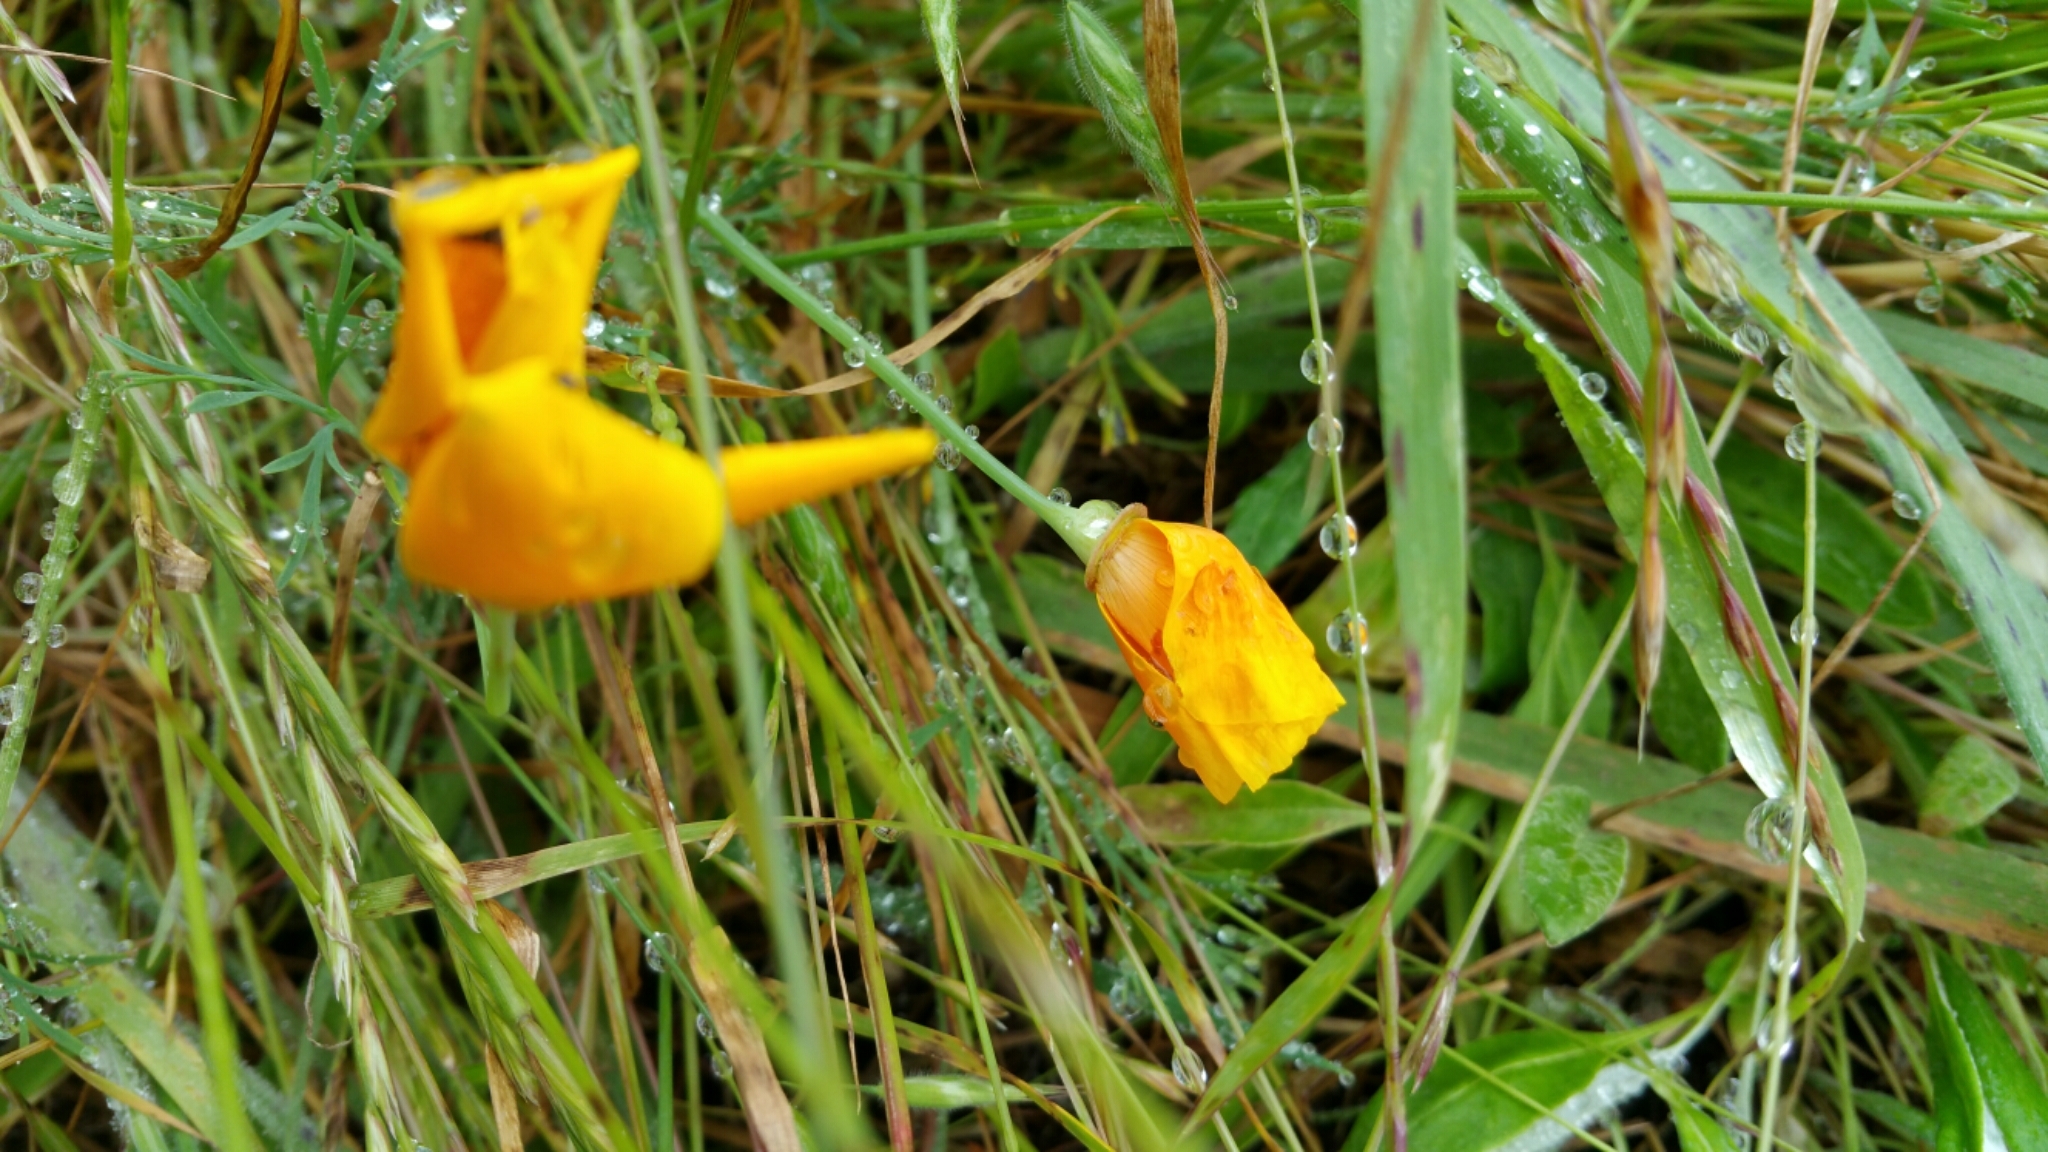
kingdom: Plantae
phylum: Tracheophyta
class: Magnoliopsida
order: Ranunculales
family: Papaveraceae
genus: Eschscholzia
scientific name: Eschscholzia californica
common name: California poppy
